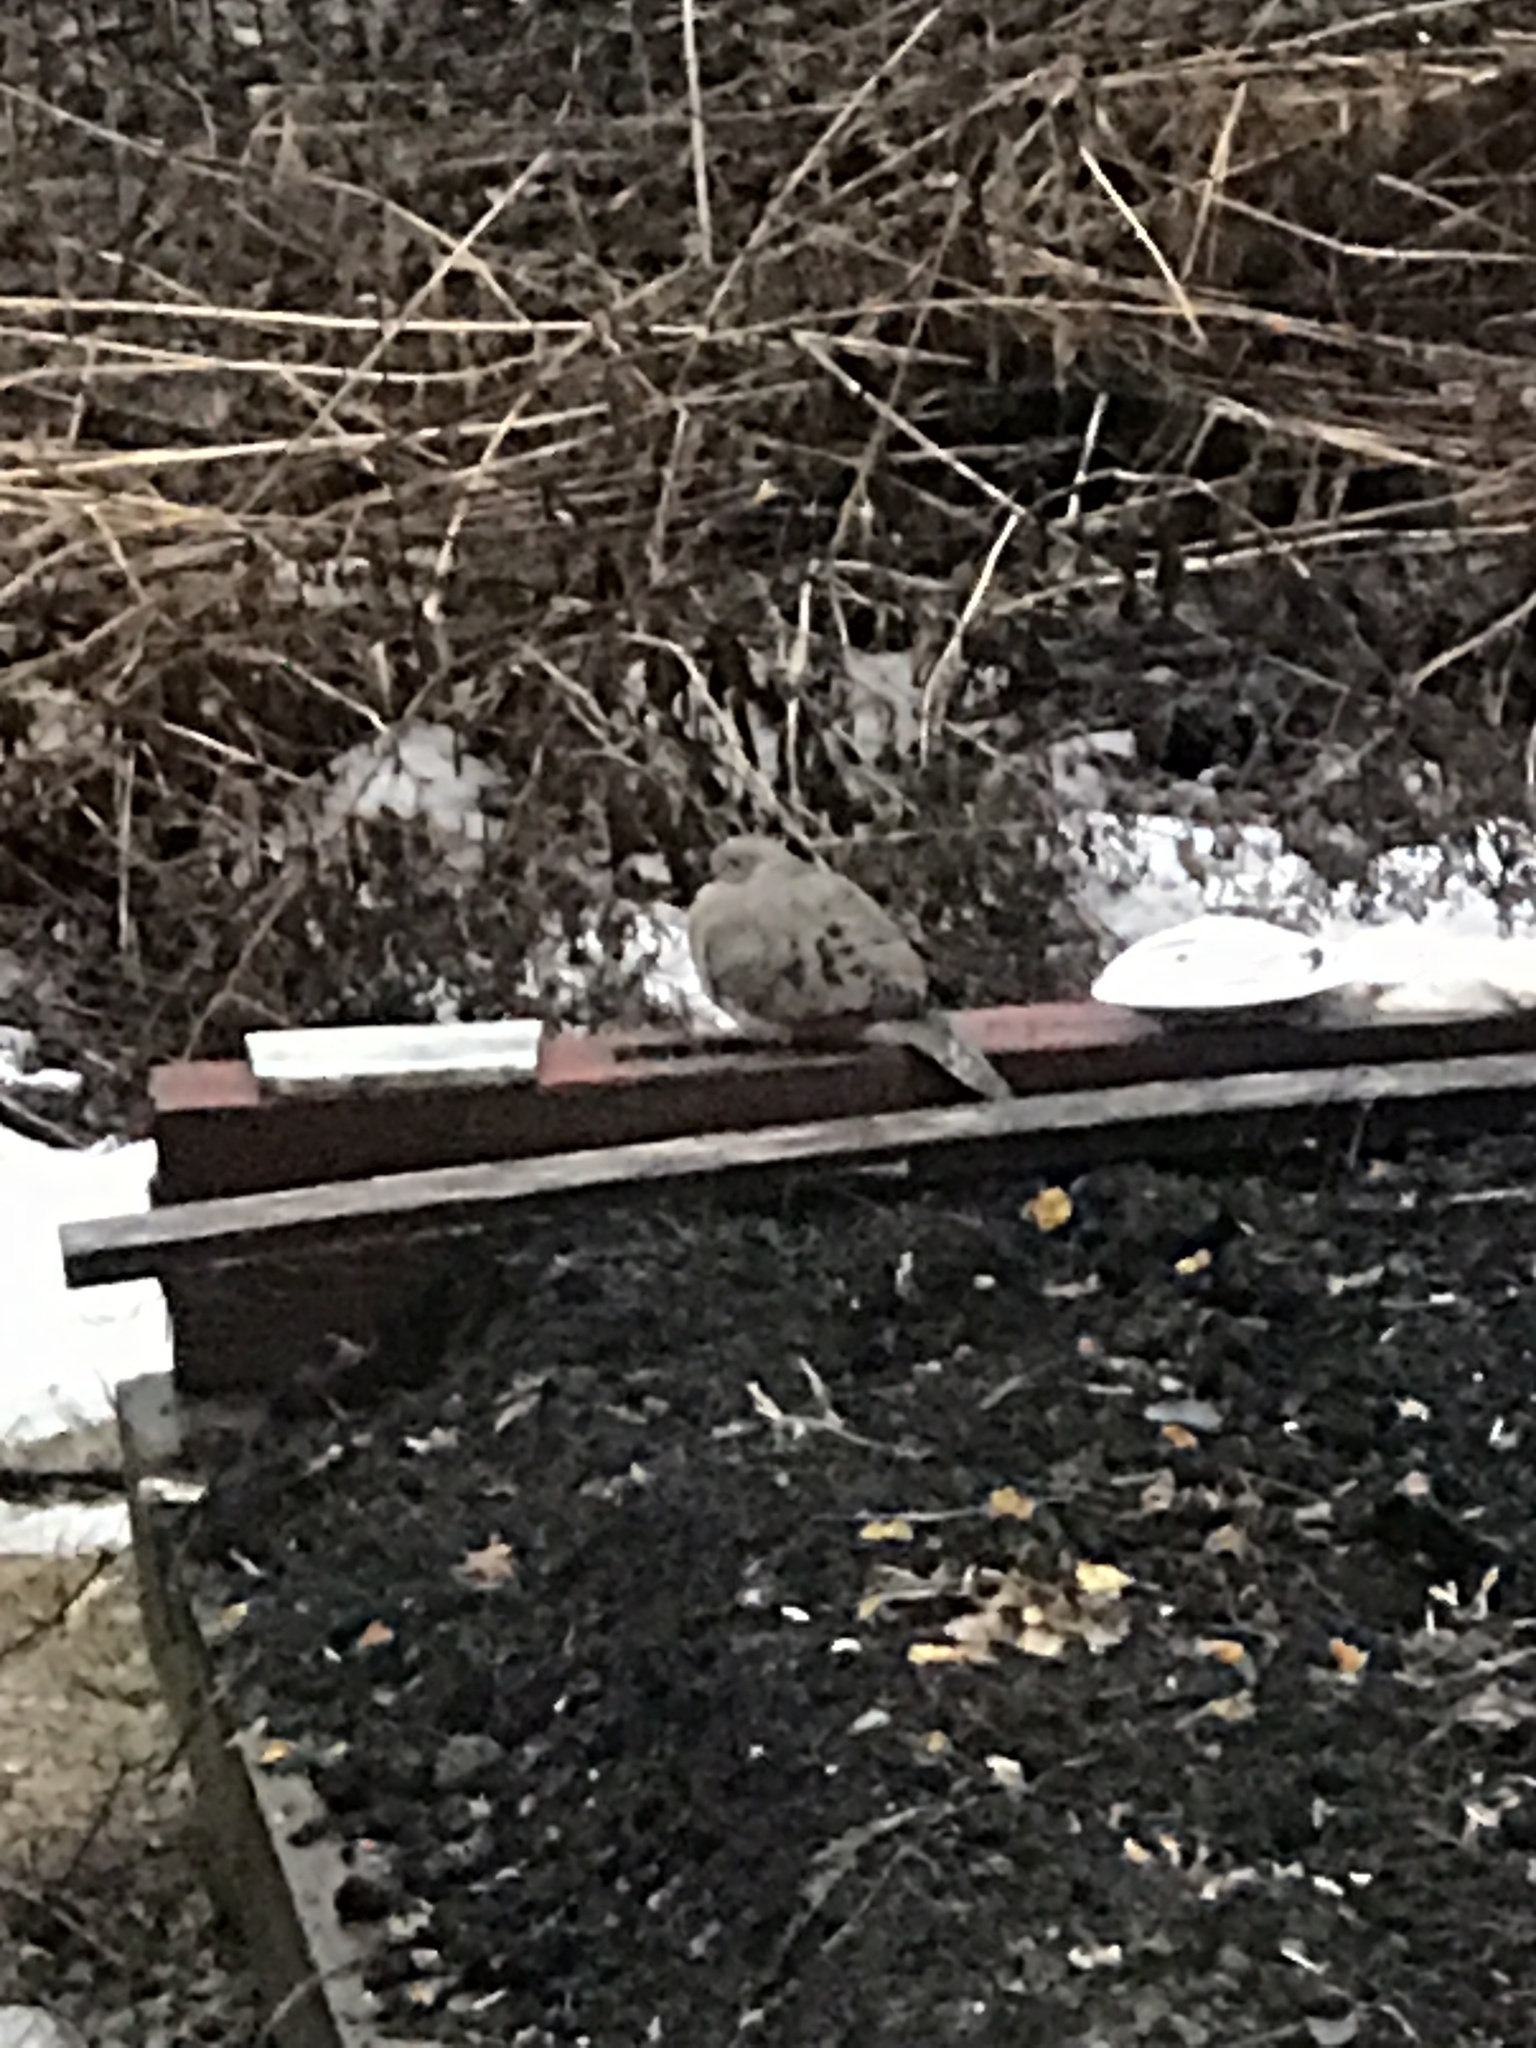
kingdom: Animalia
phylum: Chordata
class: Aves
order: Columbiformes
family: Columbidae
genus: Zenaida
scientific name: Zenaida macroura
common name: Mourning dove
